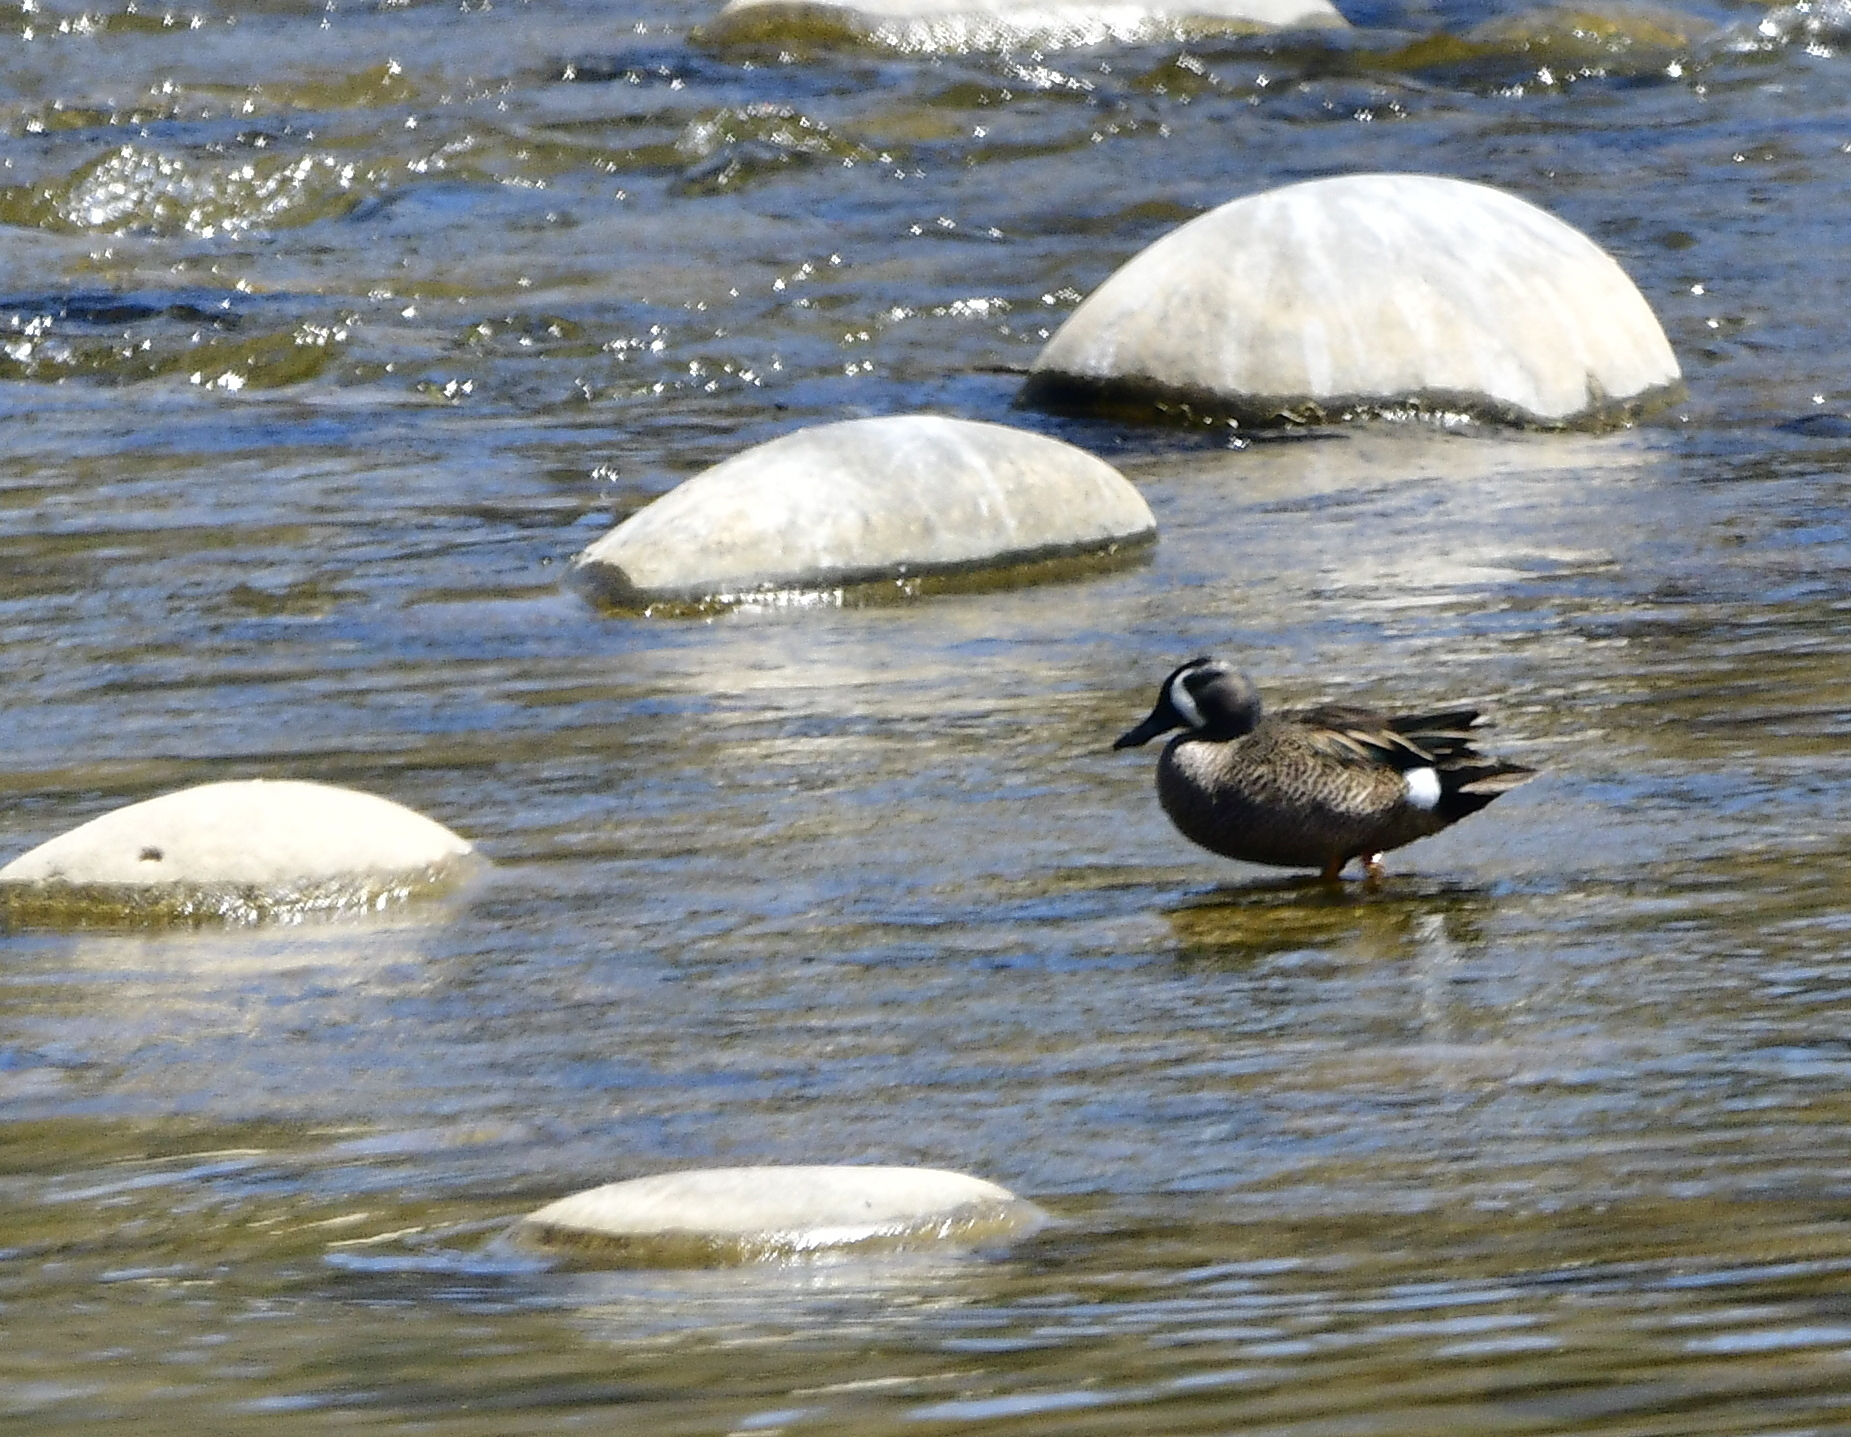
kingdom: Animalia
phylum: Chordata
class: Aves
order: Anseriformes
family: Anatidae
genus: Spatula
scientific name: Spatula discors
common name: Blue-winged teal
